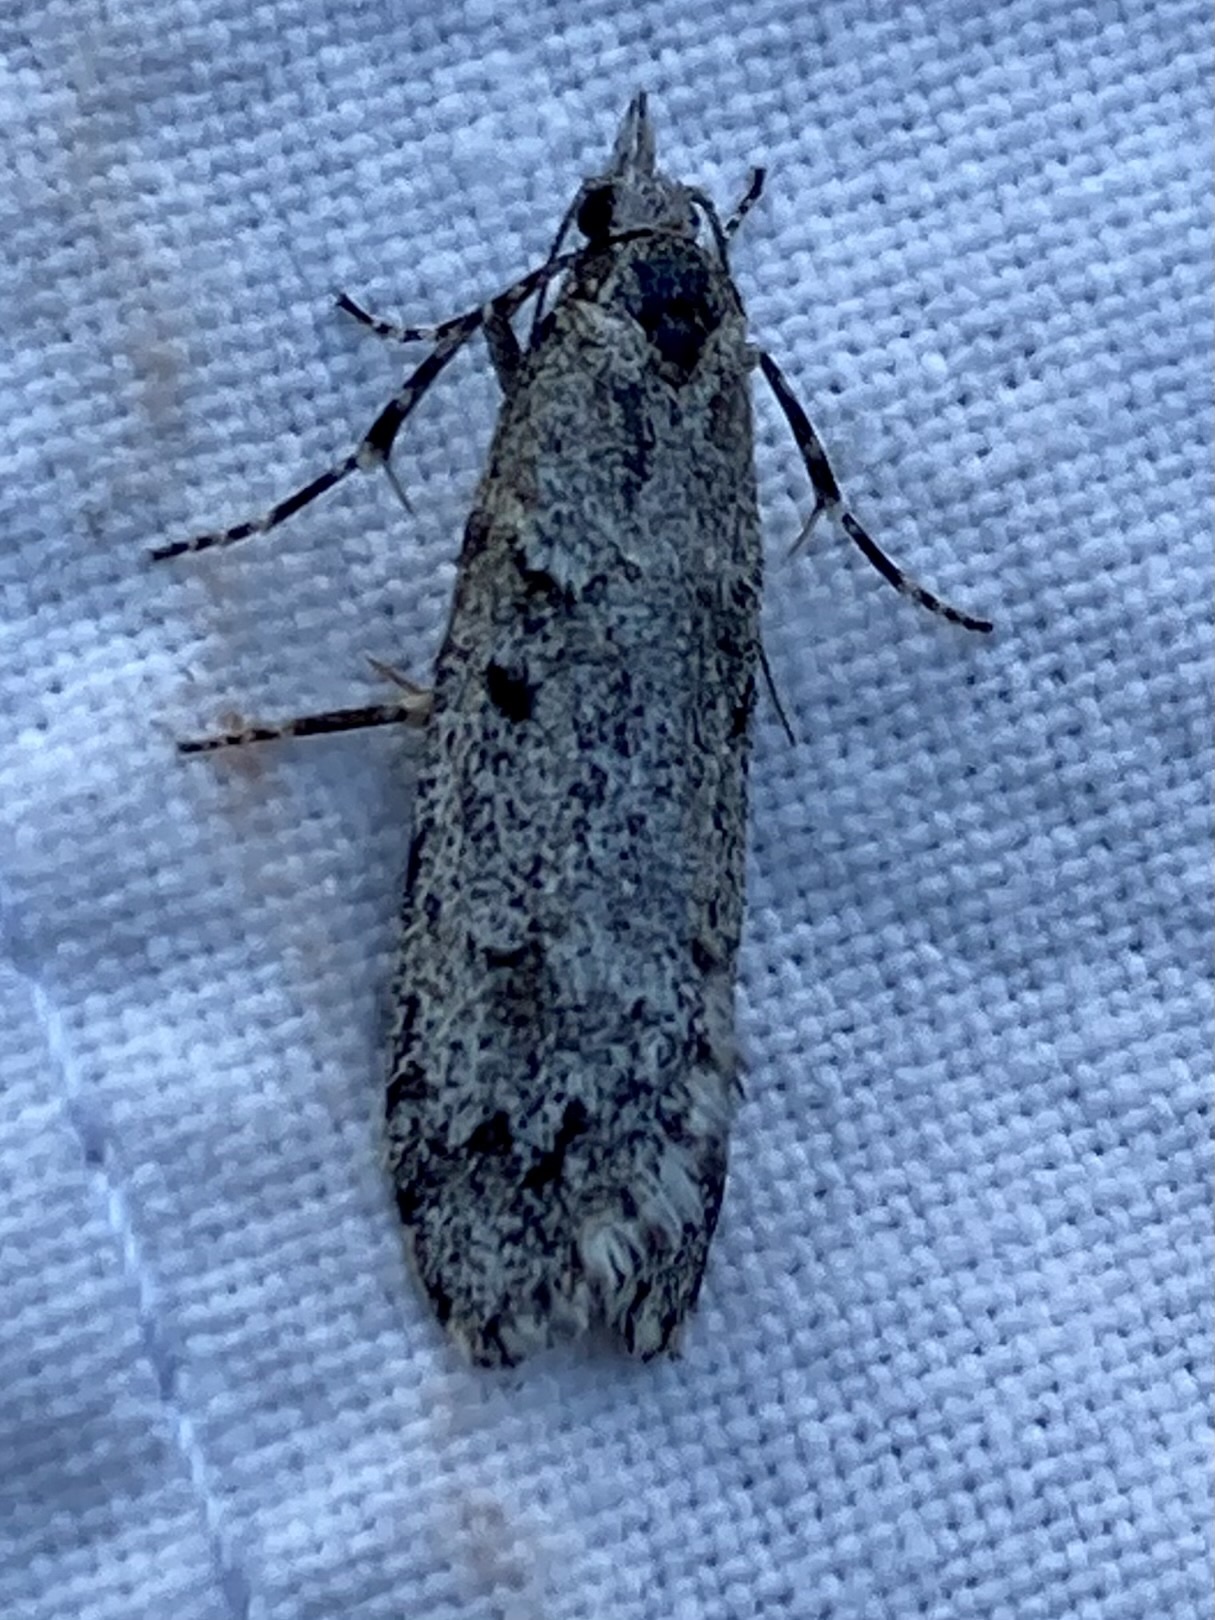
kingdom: Animalia
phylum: Arthropoda
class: Insecta
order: Lepidoptera
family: Lypusidae
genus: Diurnea
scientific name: Diurnea fagella
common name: March tubic
